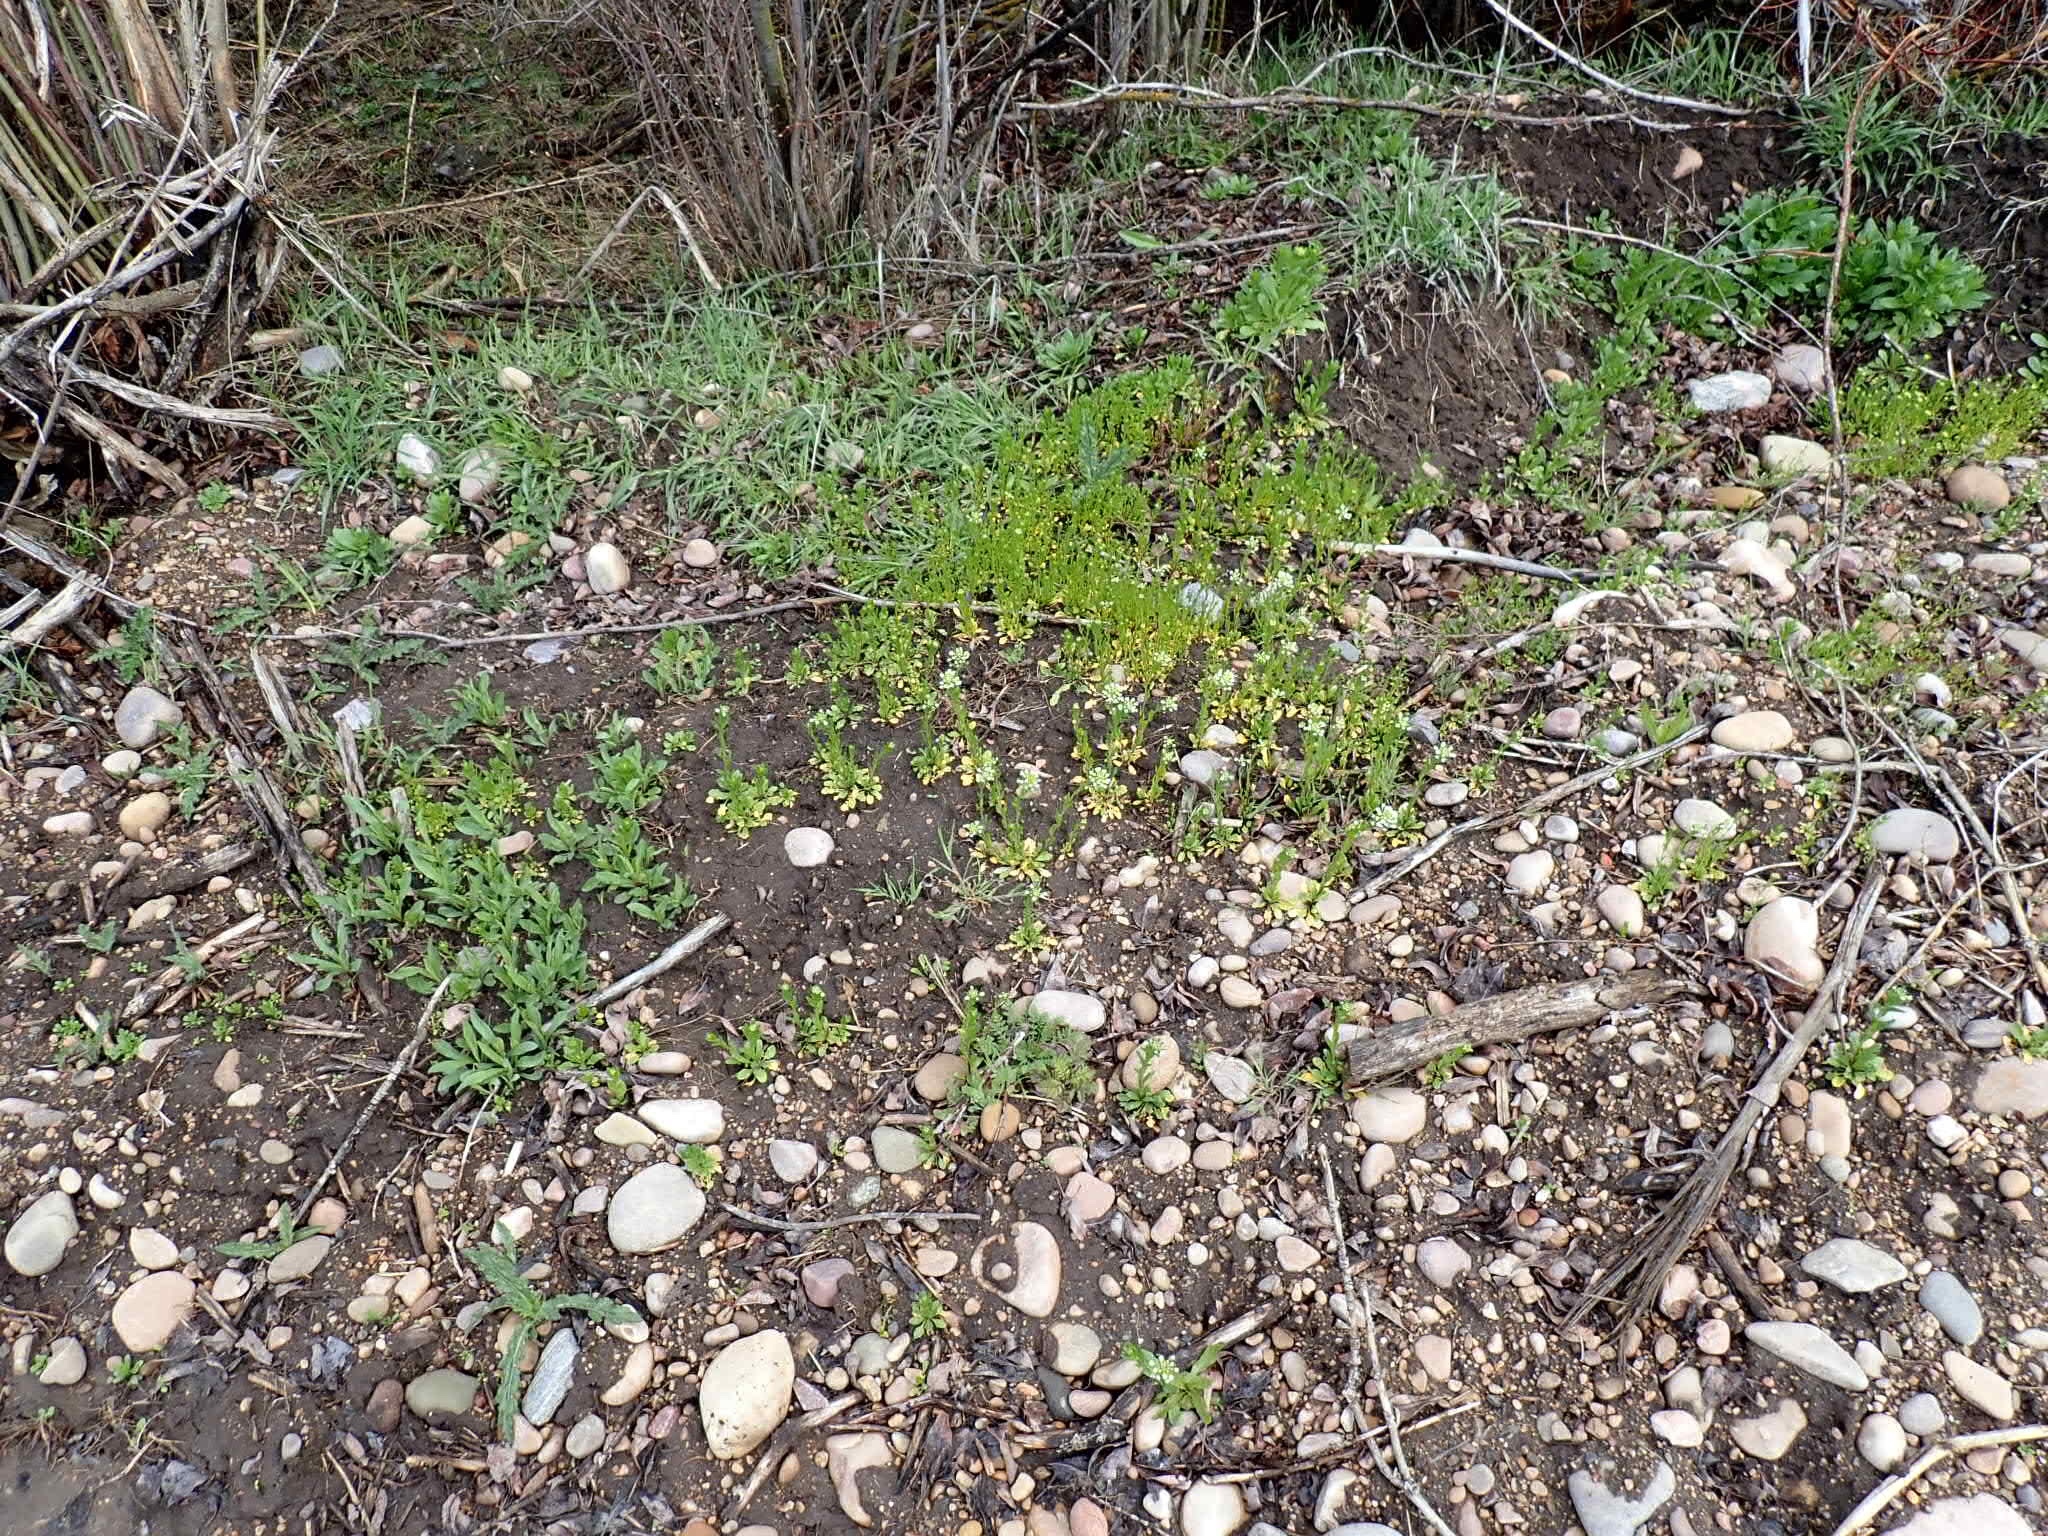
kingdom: Plantae
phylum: Tracheophyta
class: Magnoliopsida
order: Brassicales
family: Brassicaceae
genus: Thlaspi
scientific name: Thlaspi arvense
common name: Field pennycress
